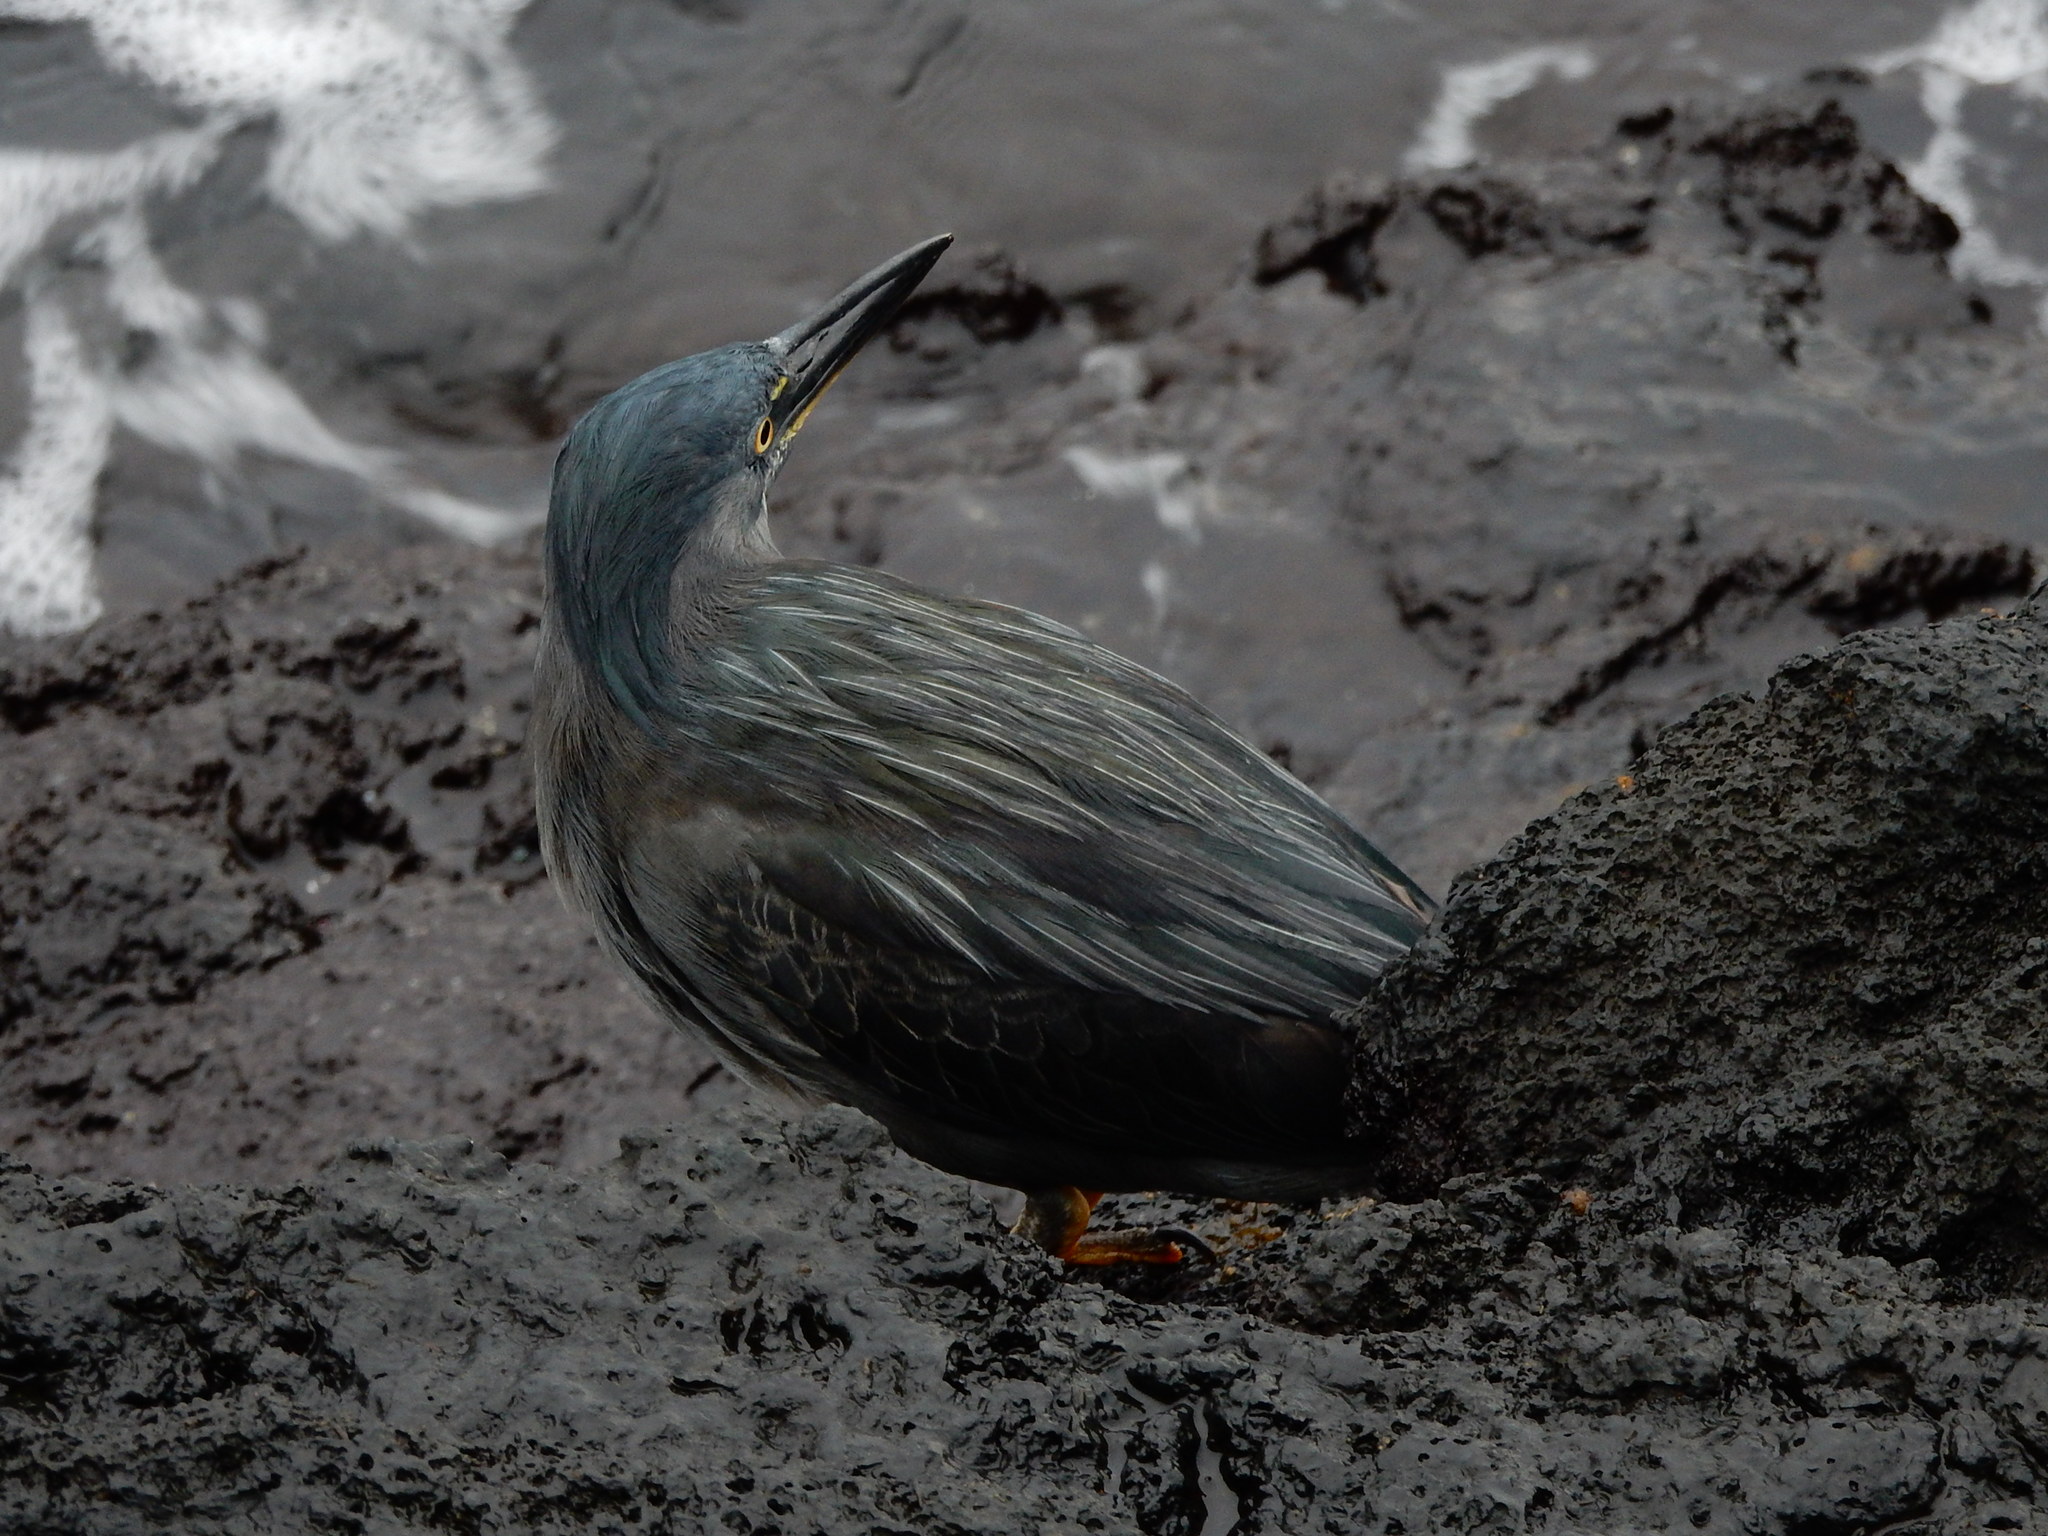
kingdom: Animalia
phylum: Chordata
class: Aves
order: Pelecaniformes
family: Ardeidae
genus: Butorides
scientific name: Butorides striata
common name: Striated heron
